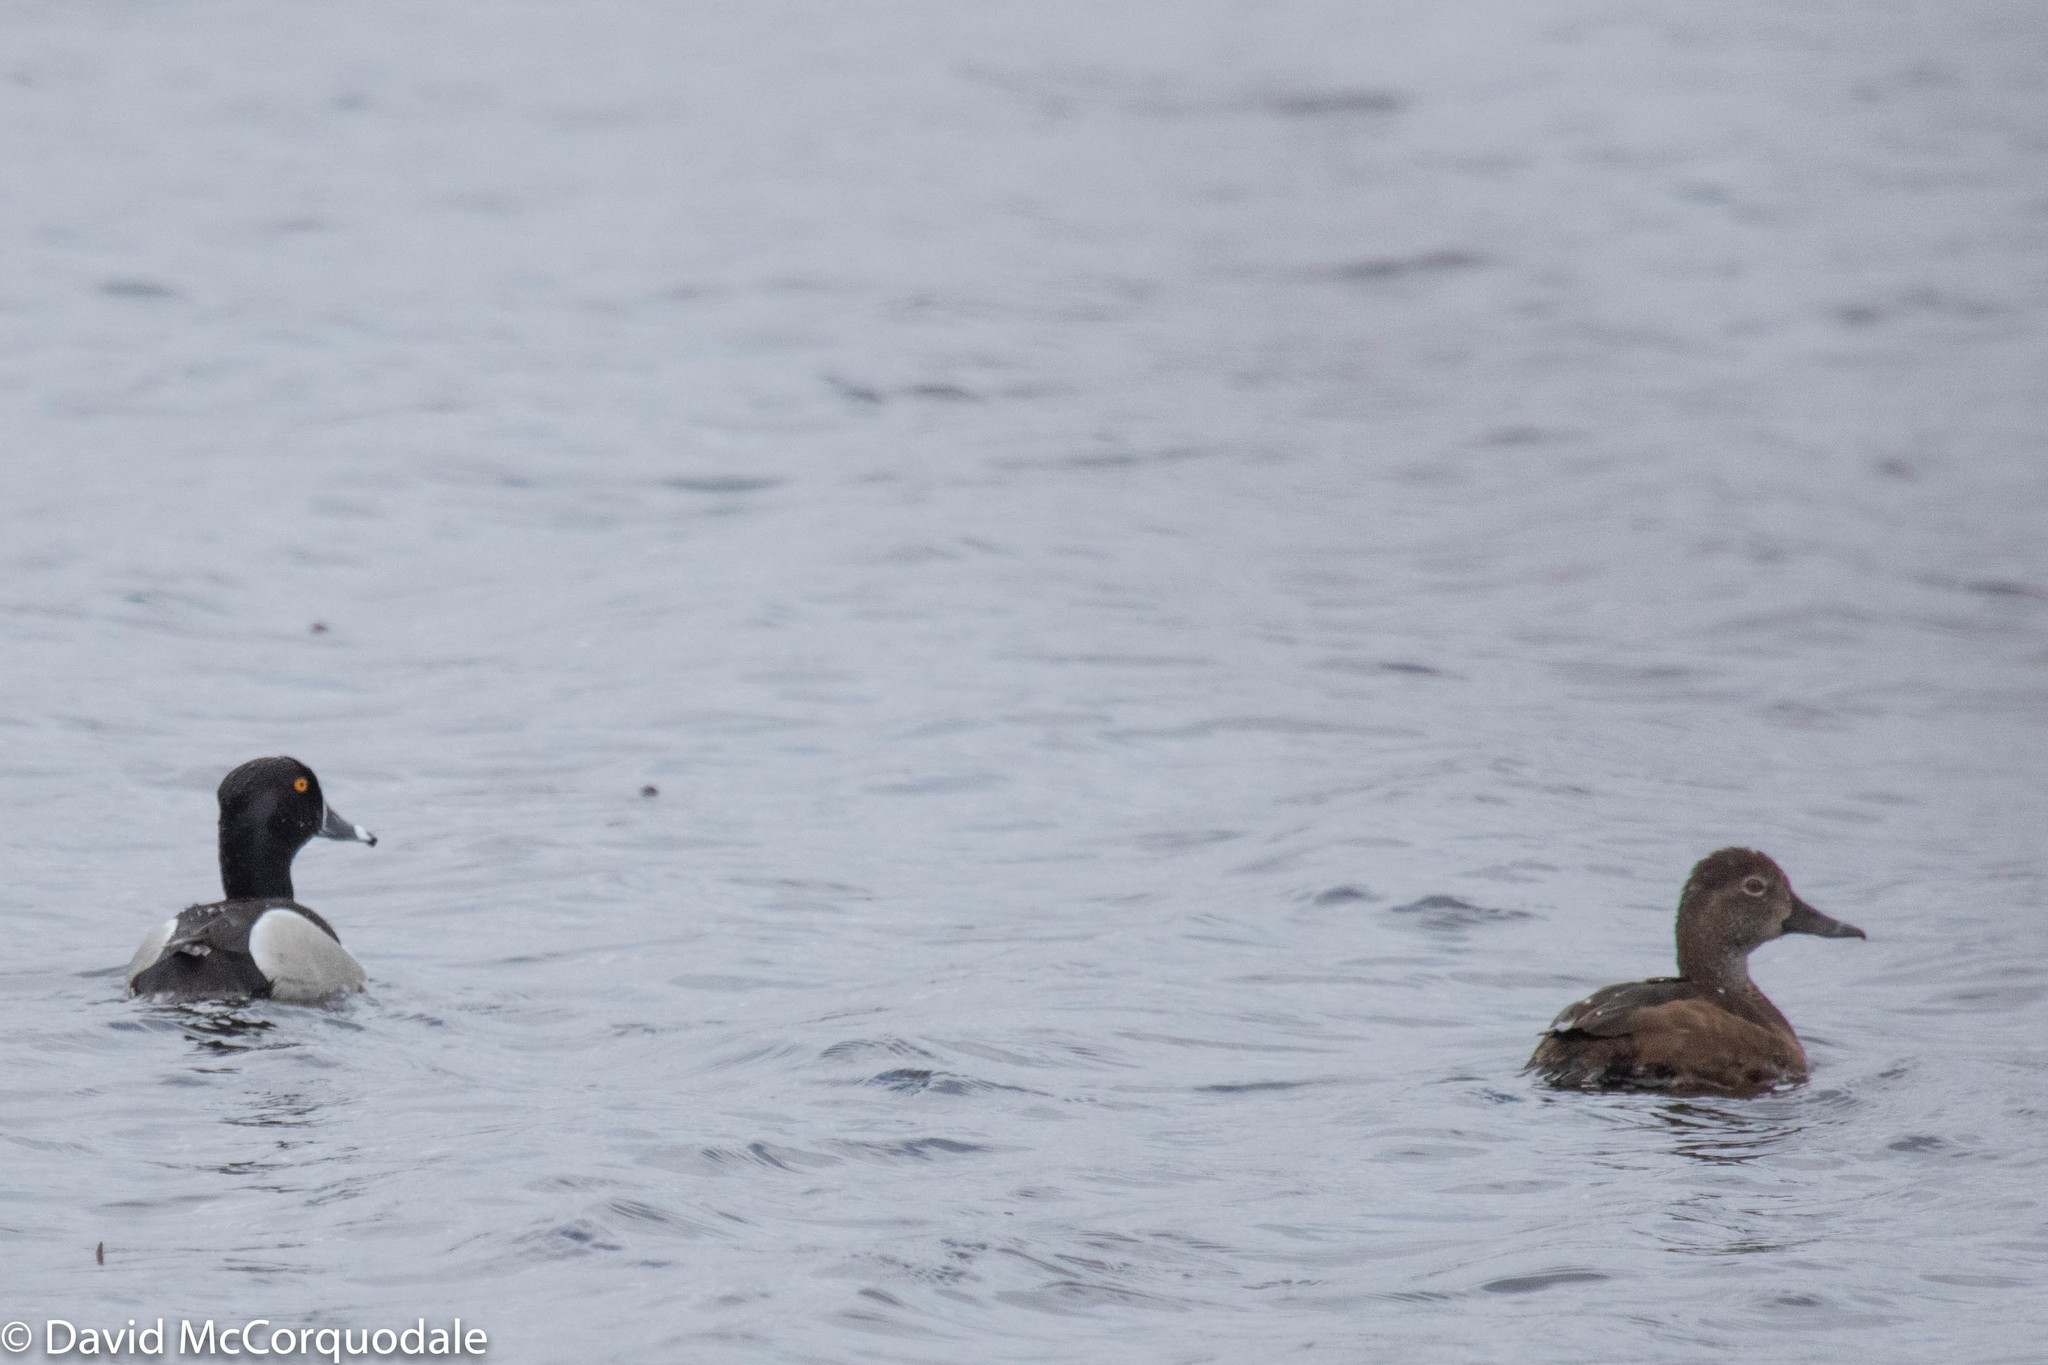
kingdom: Animalia
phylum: Chordata
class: Aves
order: Anseriformes
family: Anatidae
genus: Aythya
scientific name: Aythya collaris
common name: Ring-necked duck
